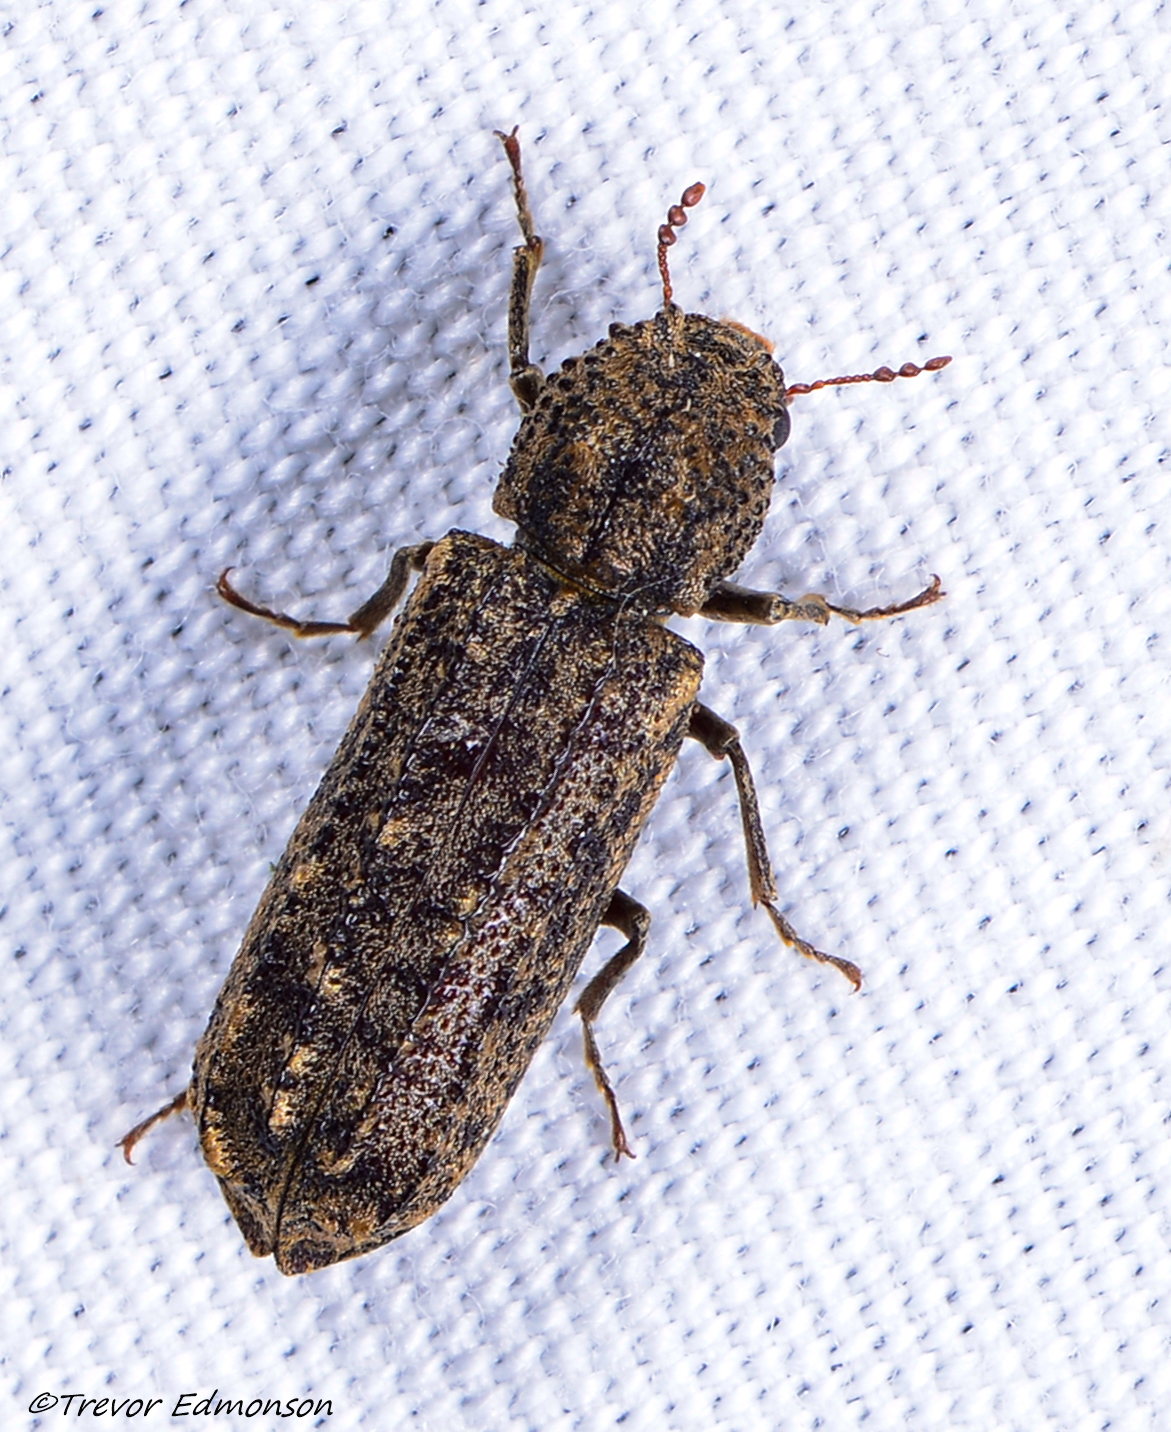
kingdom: Animalia
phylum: Arthropoda
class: Insecta
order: Coleoptera
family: Bostrichidae
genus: Lichenophanes
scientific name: Lichenophanes bicornis
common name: Two-horned powder-post beetle
